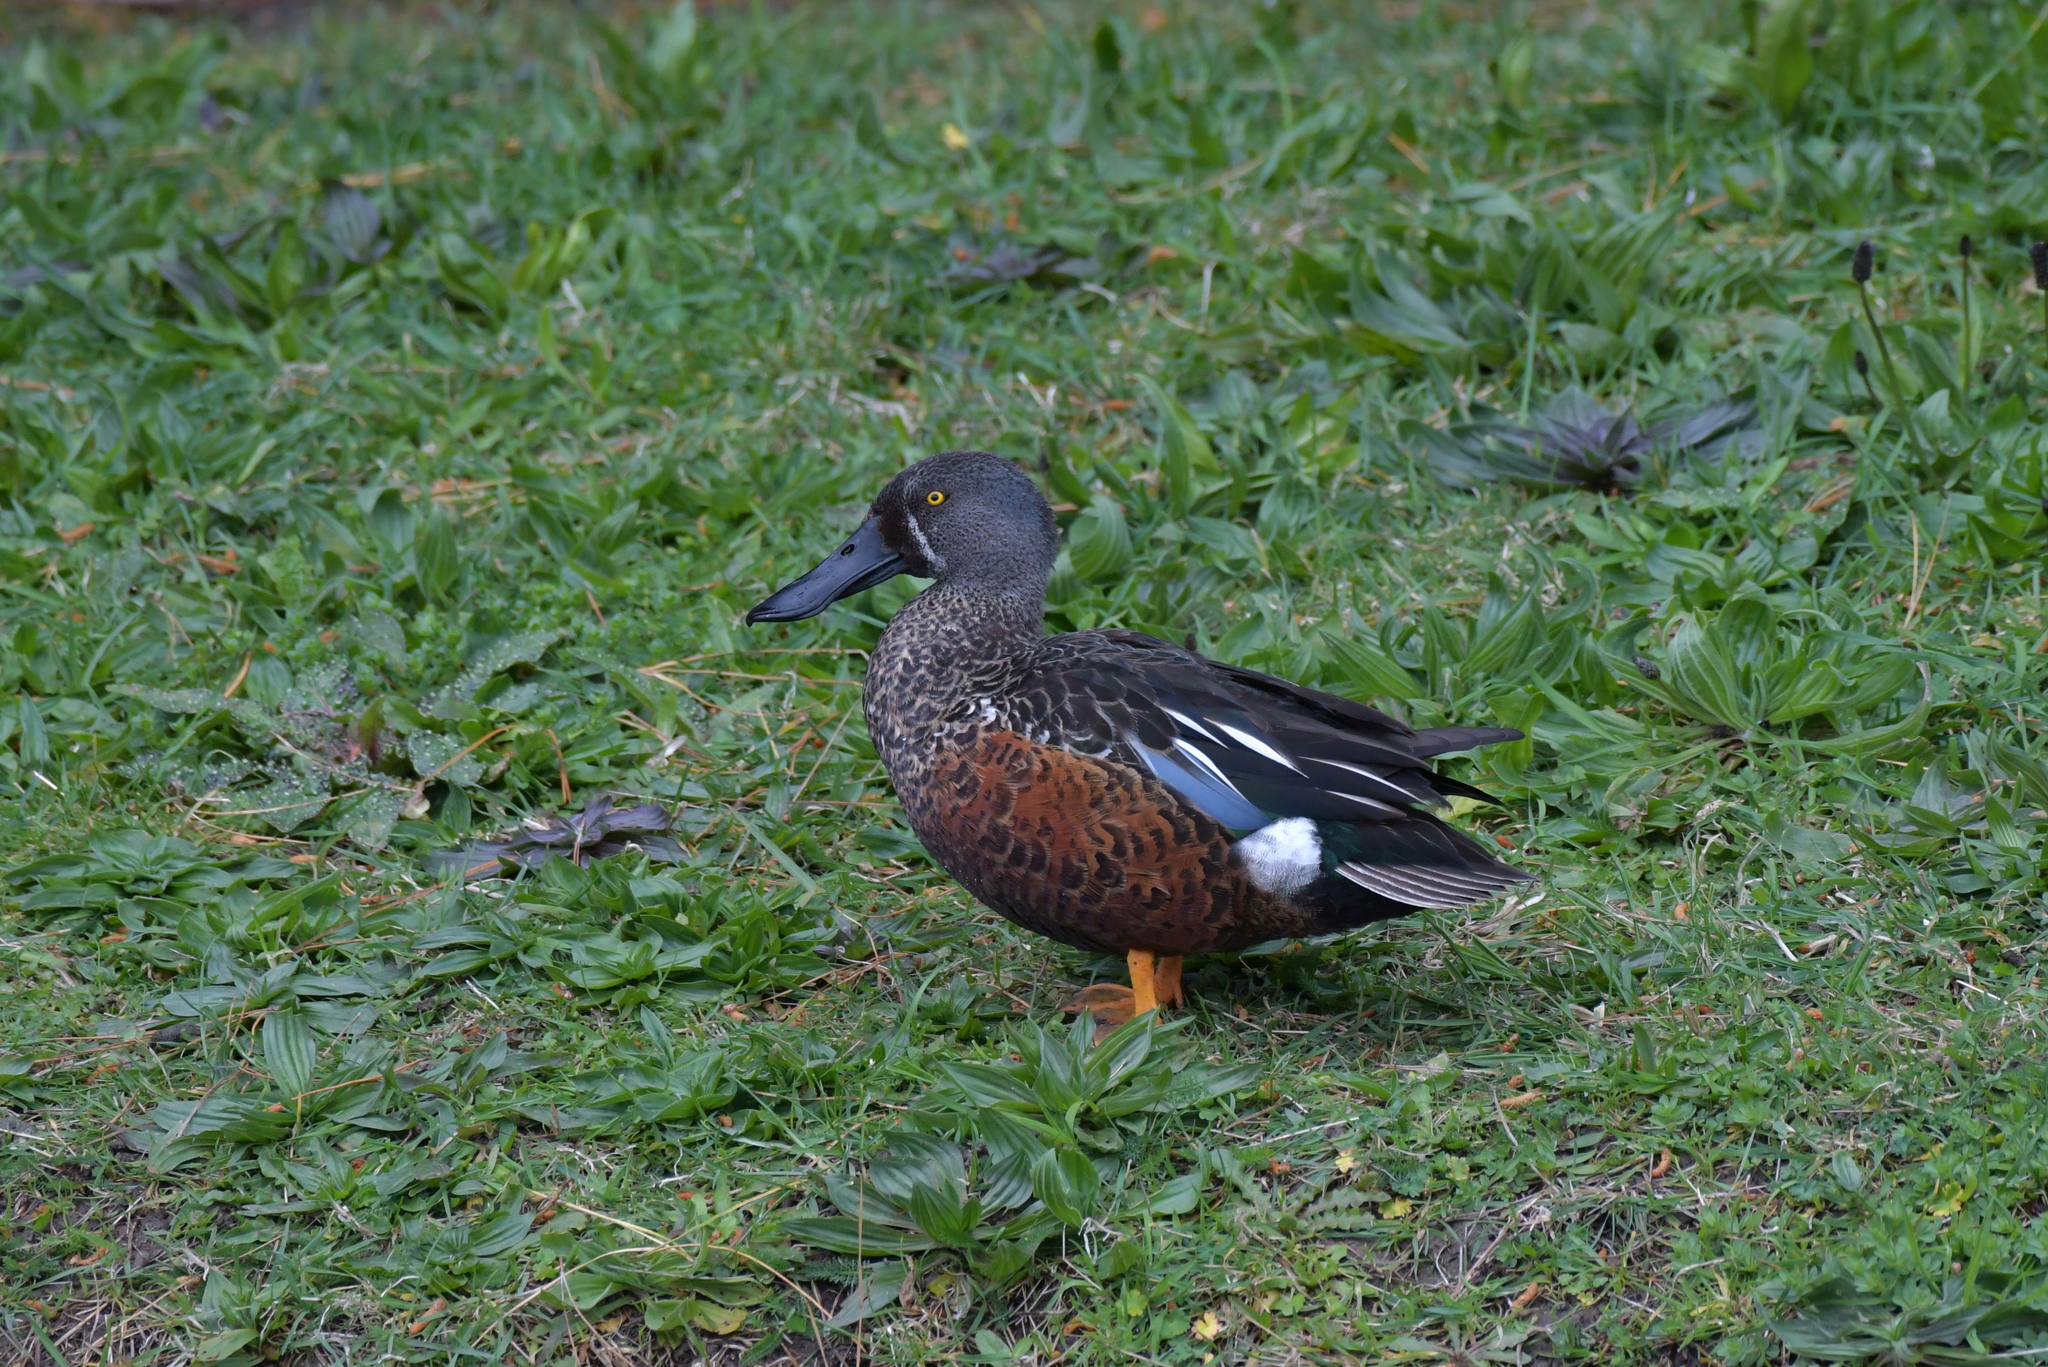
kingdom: Animalia
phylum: Chordata
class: Aves
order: Anseriformes
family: Anatidae
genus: Spatula
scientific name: Spatula rhynchotis
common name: Australian shoveler
